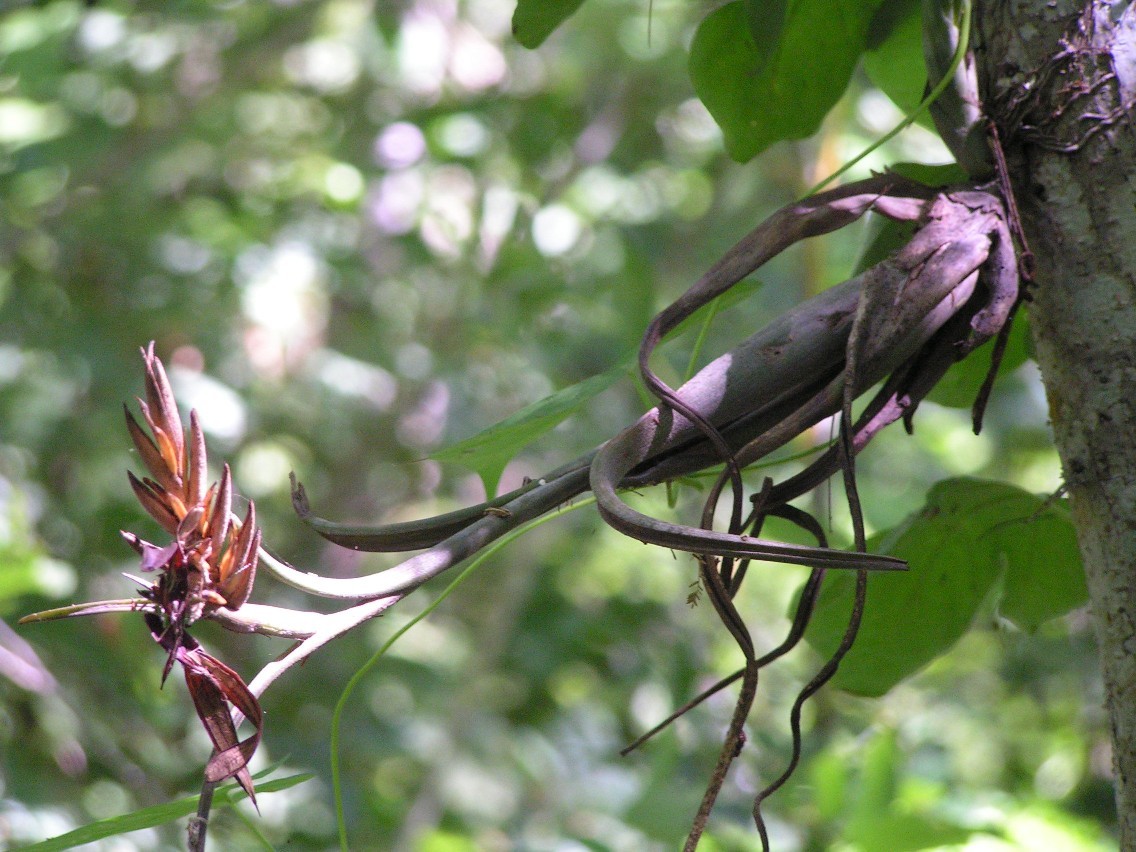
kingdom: Plantae
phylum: Tracheophyta
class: Liliopsida
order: Poales
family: Bromeliaceae
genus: Tillandsia
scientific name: Tillandsia intermedia
